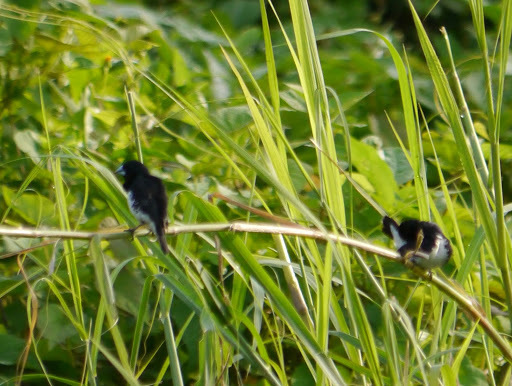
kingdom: Animalia
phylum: Chordata
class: Aves
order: Passeriformes
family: Estrildidae
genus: Lonchura
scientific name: Lonchura bicolor
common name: Black-and-white mannikin
